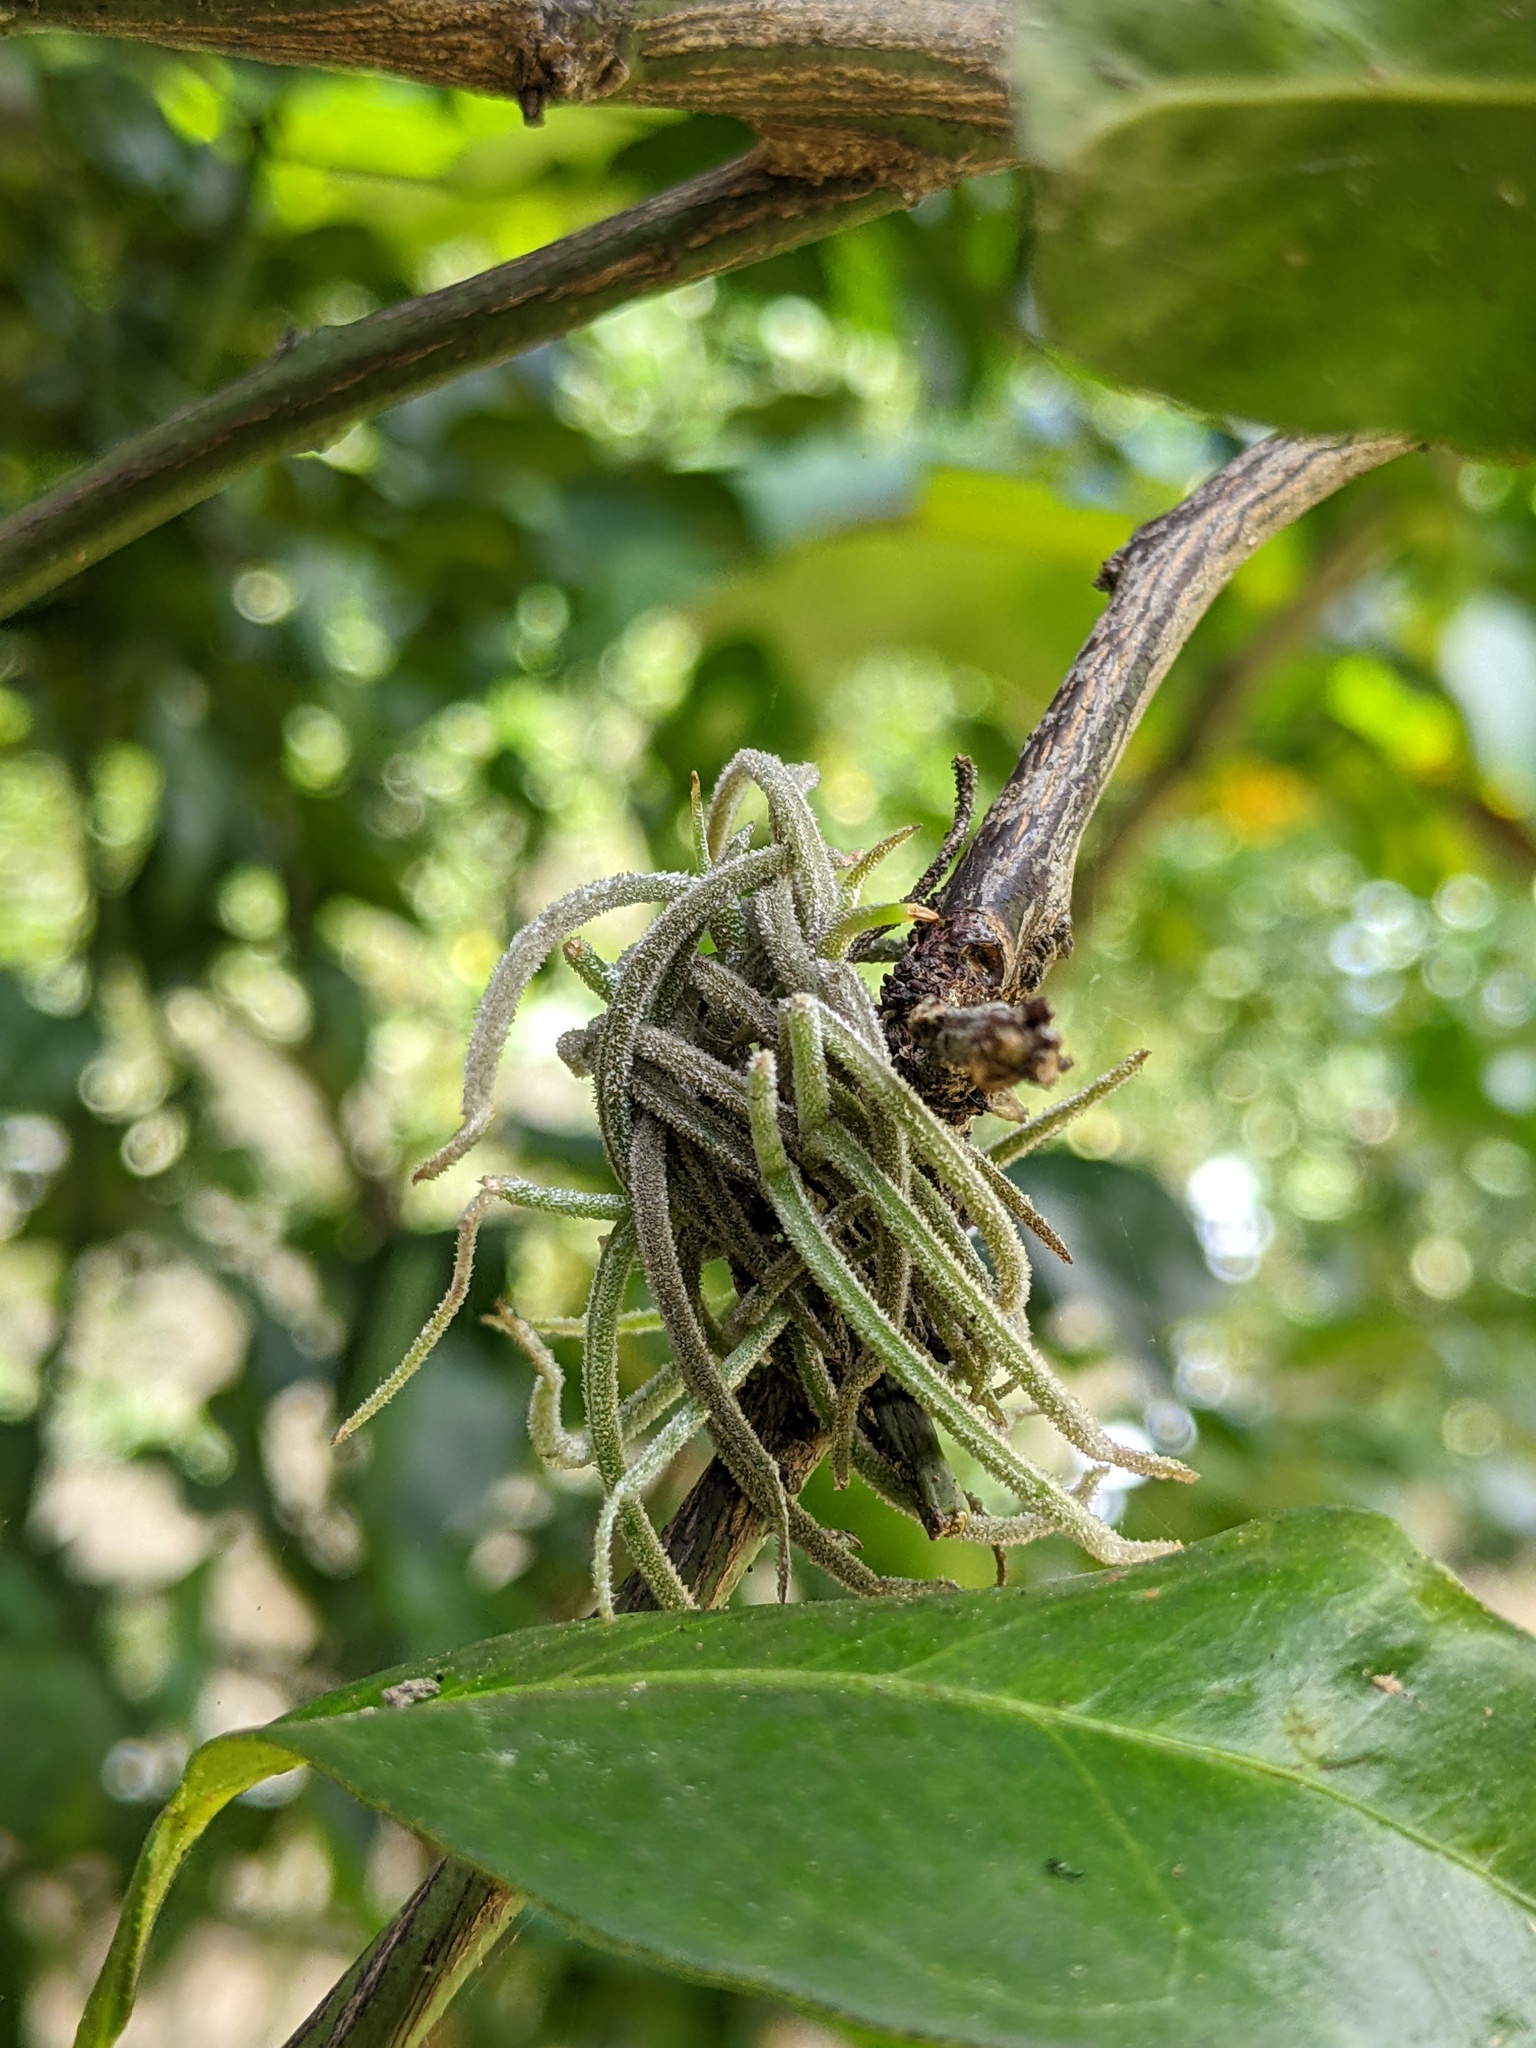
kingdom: Plantae
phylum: Tracheophyta
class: Liliopsida
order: Poales
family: Bromeliaceae
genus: Tillandsia
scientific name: Tillandsia recurvata
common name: Small ballmoss
